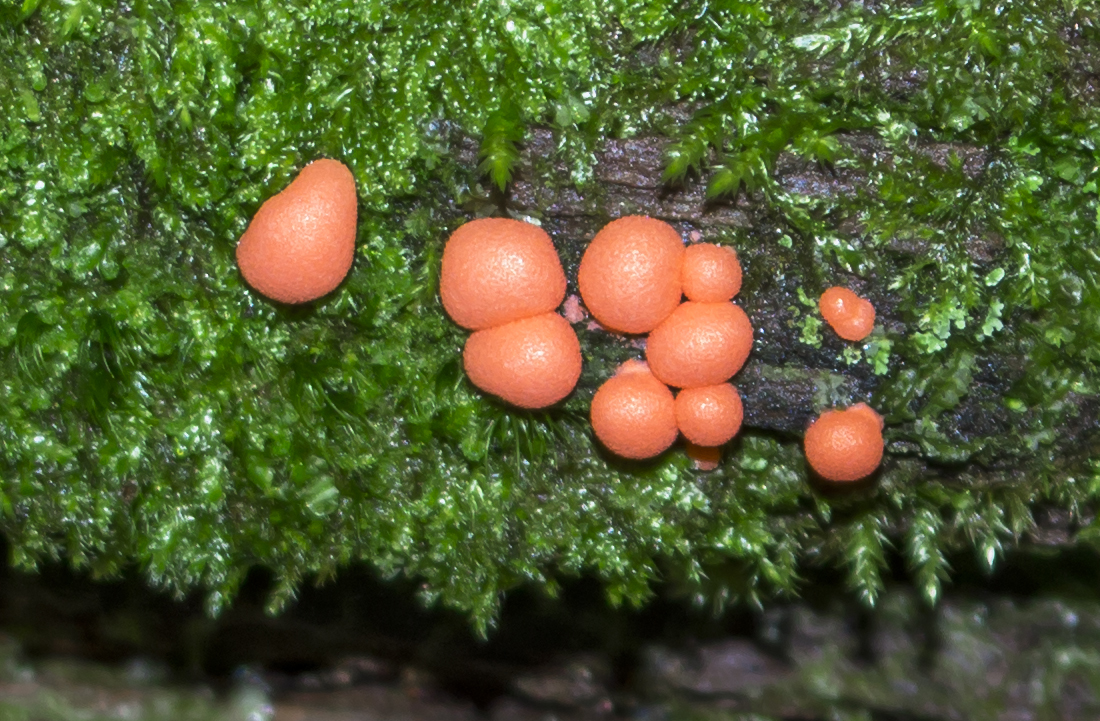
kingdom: Protozoa
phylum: Mycetozoa
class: Myxomycetes
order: Cribrariales
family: Tubiferaceae
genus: Lycogala
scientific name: Lycogala epidendrum
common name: Wolf's milk
